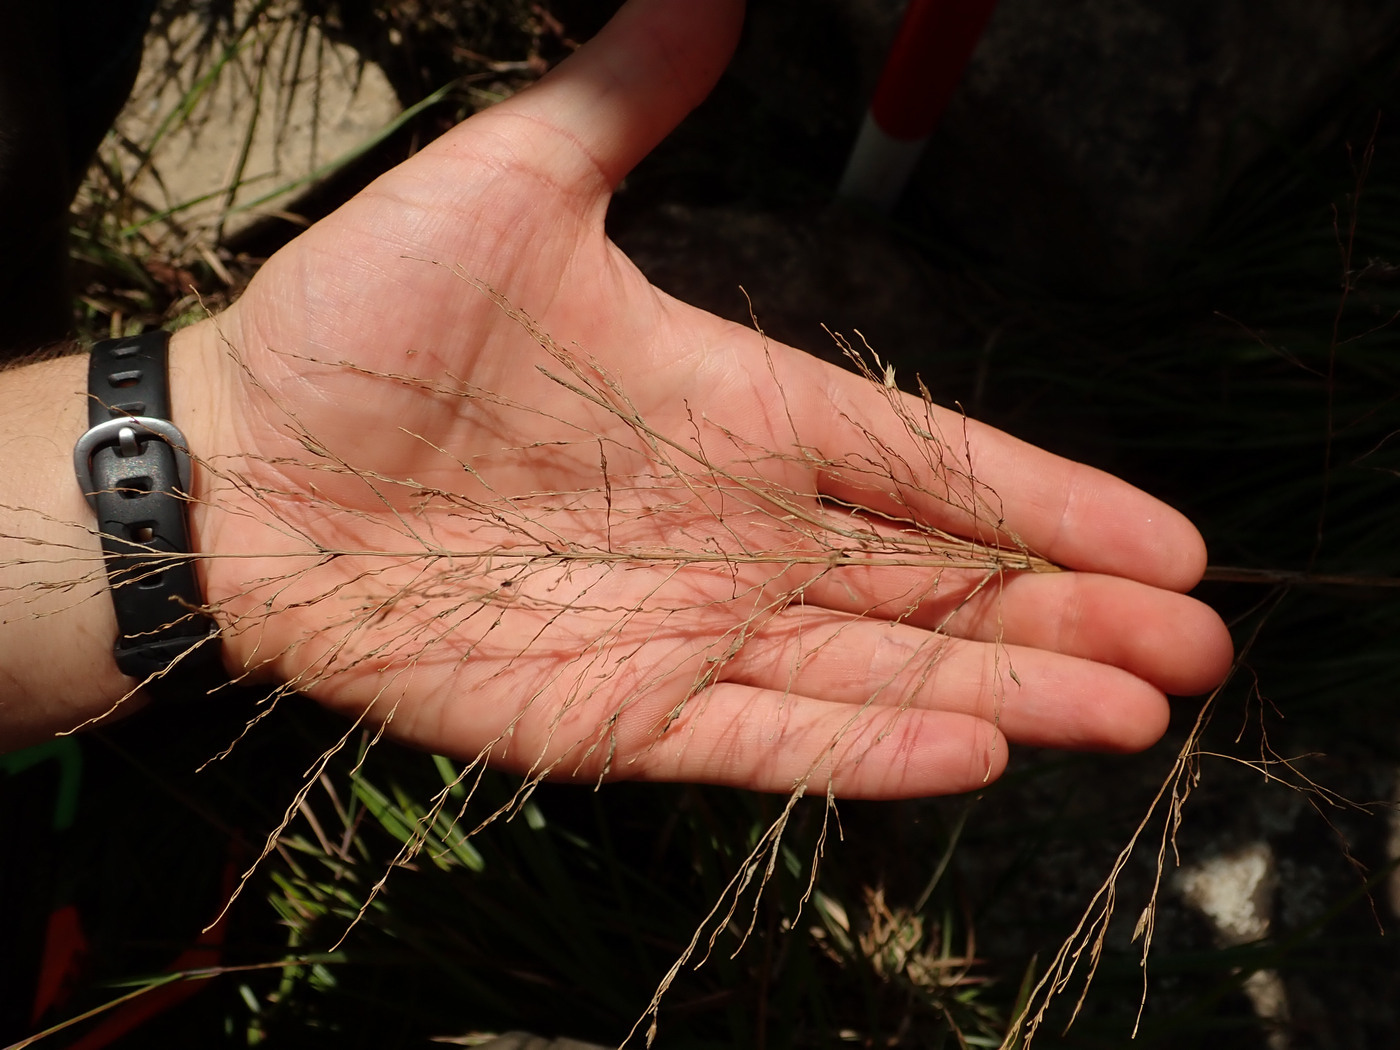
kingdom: Plantae
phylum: Tracheophyta
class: Liliopsida
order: Poales
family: Poaceae
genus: Sporobolus
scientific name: Sporobolus arcuatus
